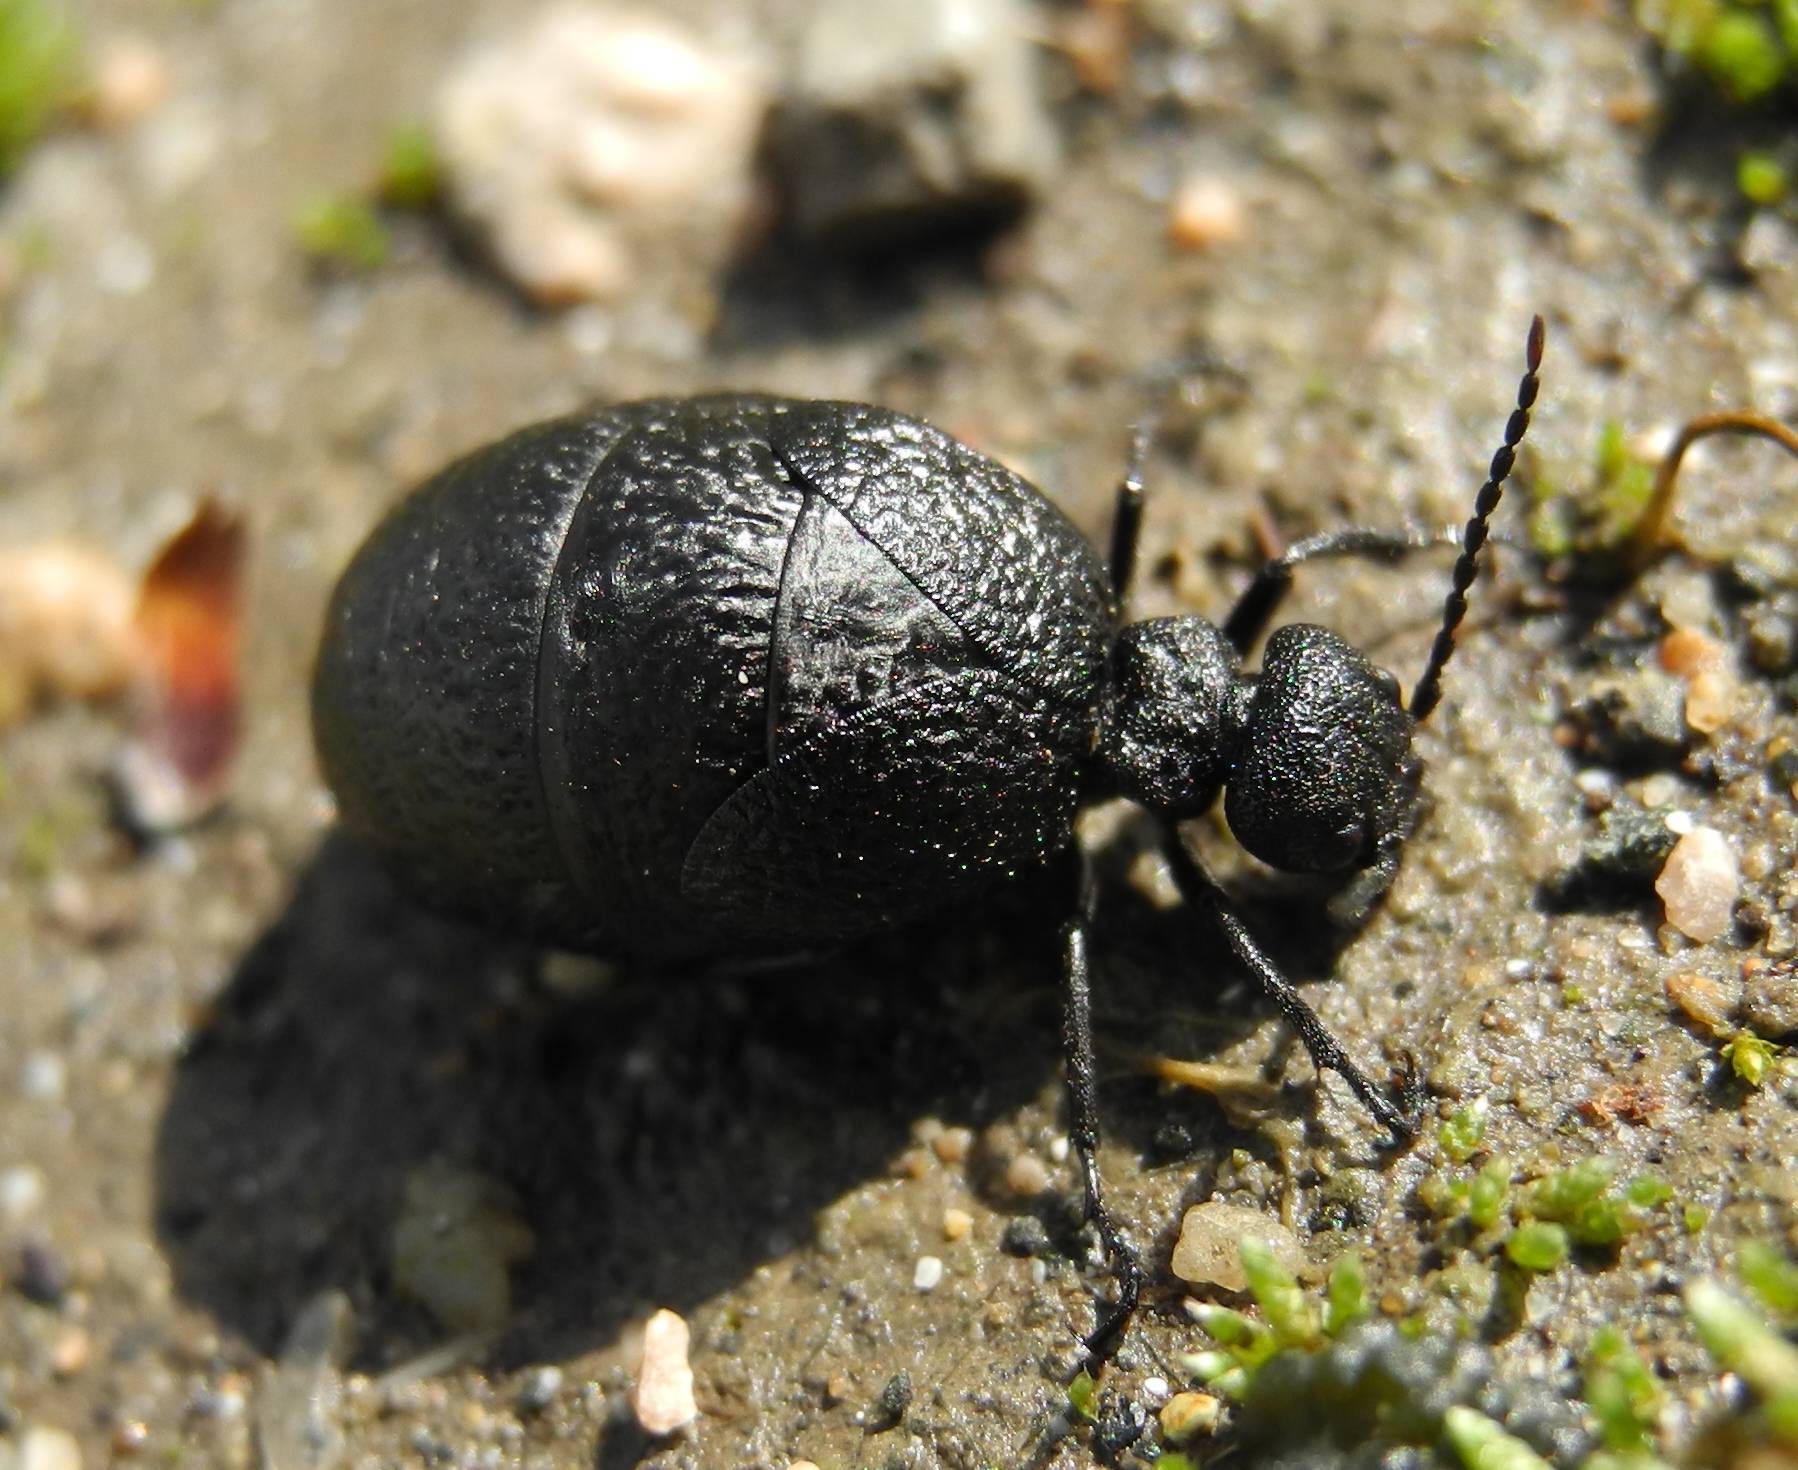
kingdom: Animalia
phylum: Arthropoda
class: Insecta
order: Coleoptera
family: Meloidae
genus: Meloe
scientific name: Meloe rugosus
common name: Rugged oil-beetle
